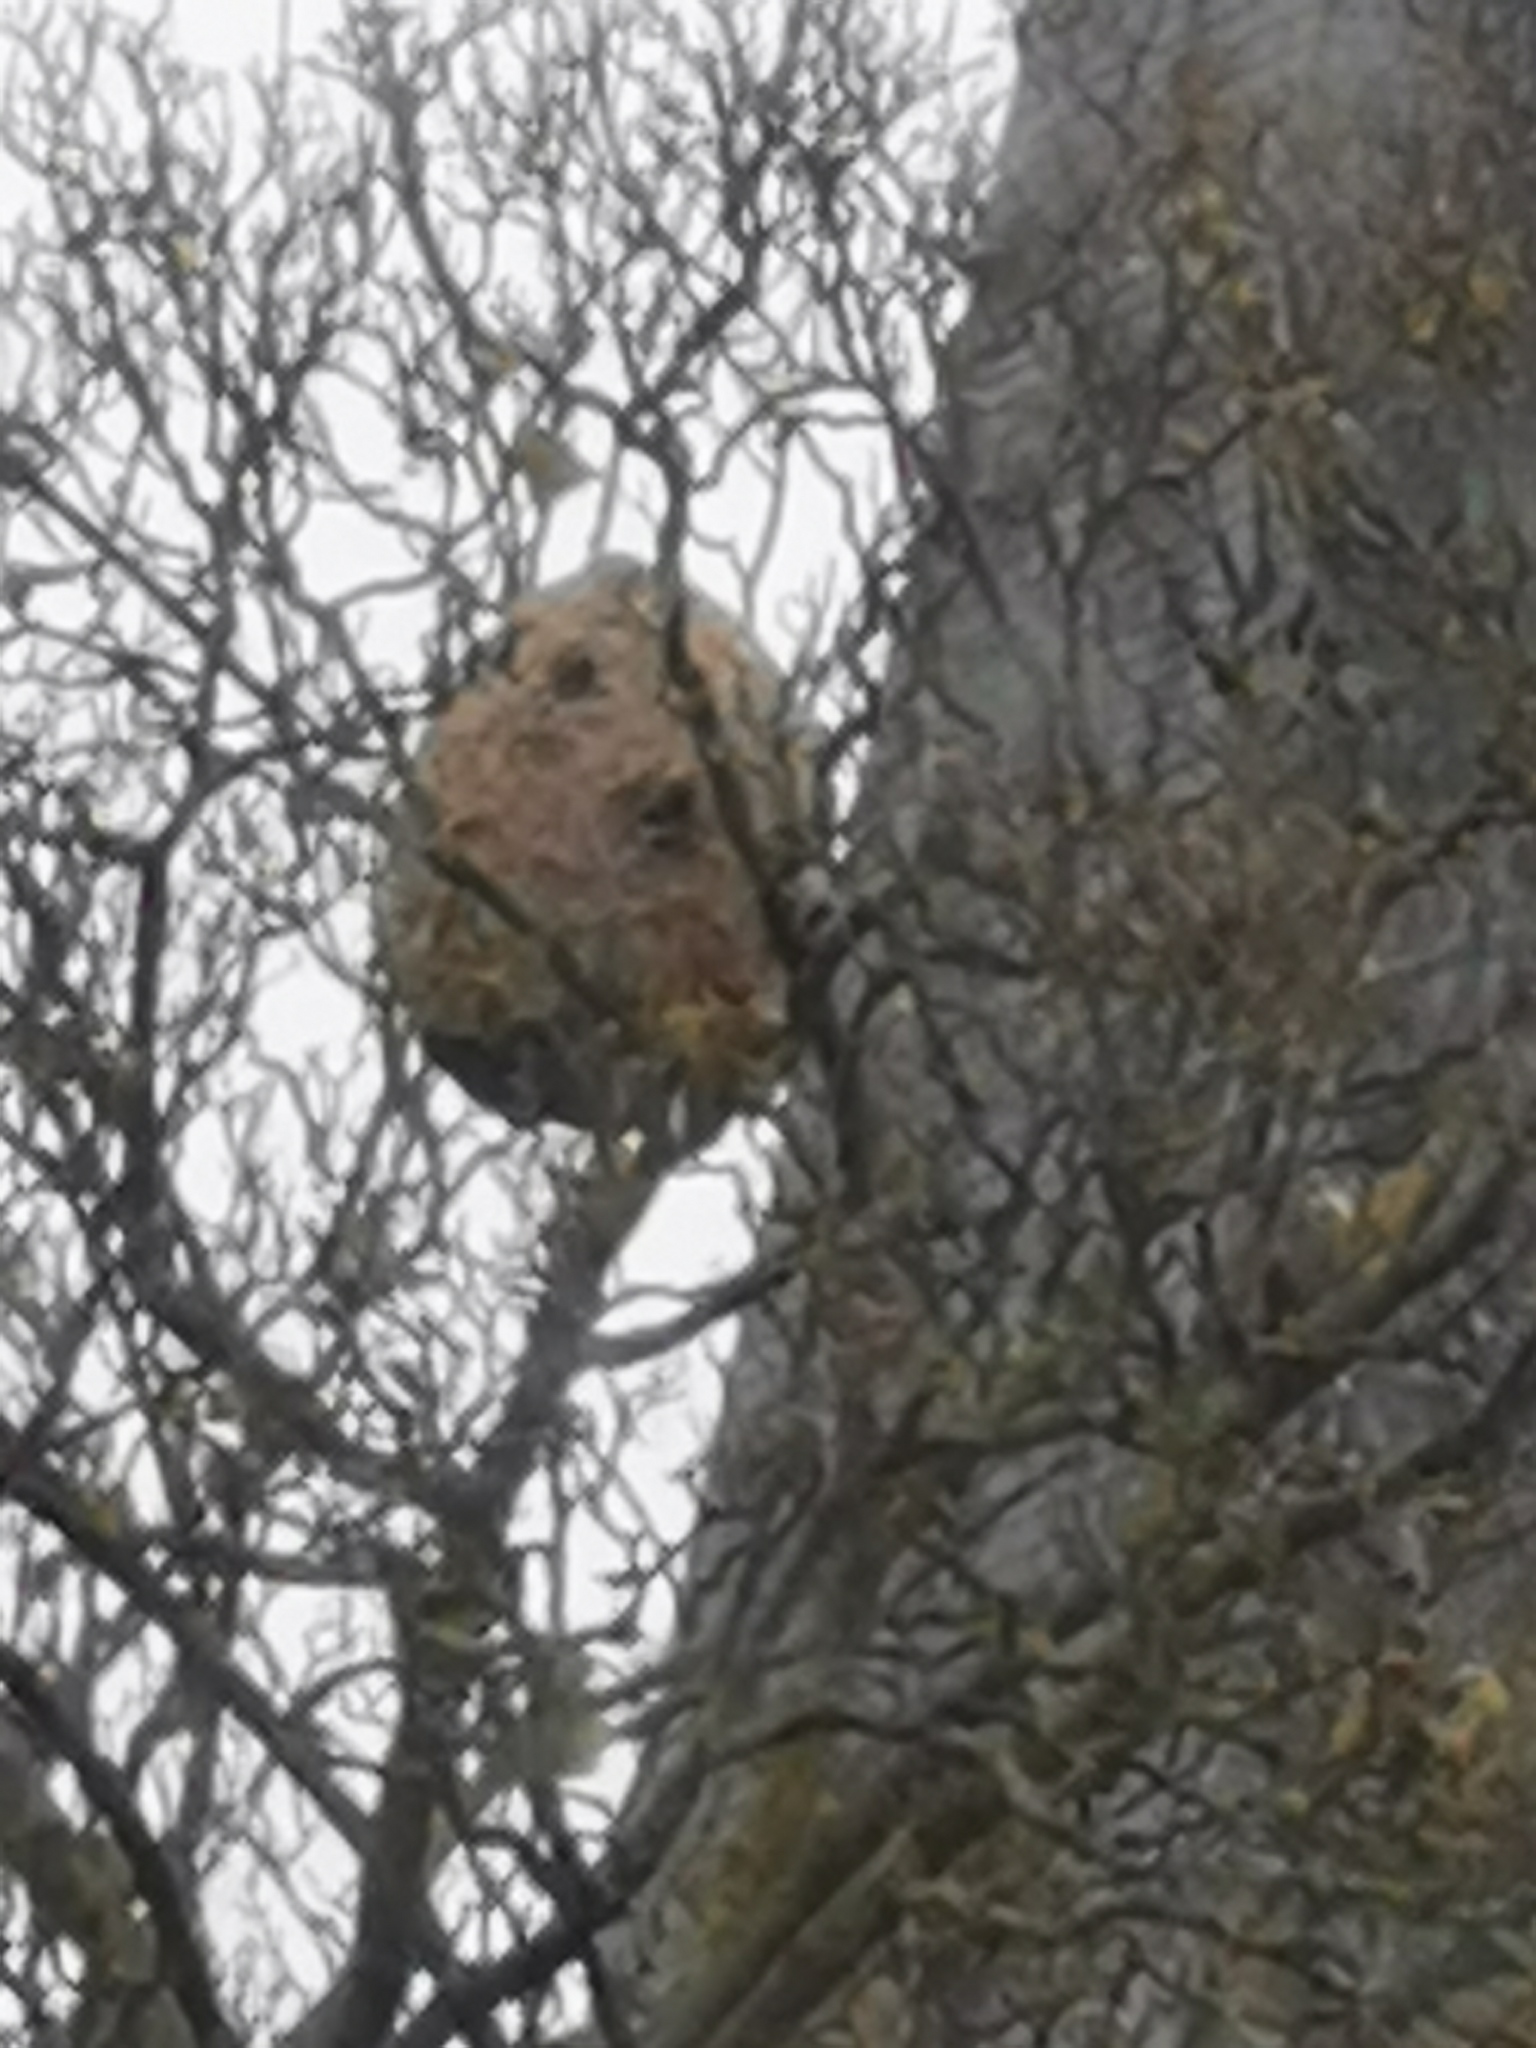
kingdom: Animalia
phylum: Arthropoda
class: Insecta
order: Hymenoptera
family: Vespidae
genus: Vespa
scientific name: Vespa velutina
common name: Asian hornet
